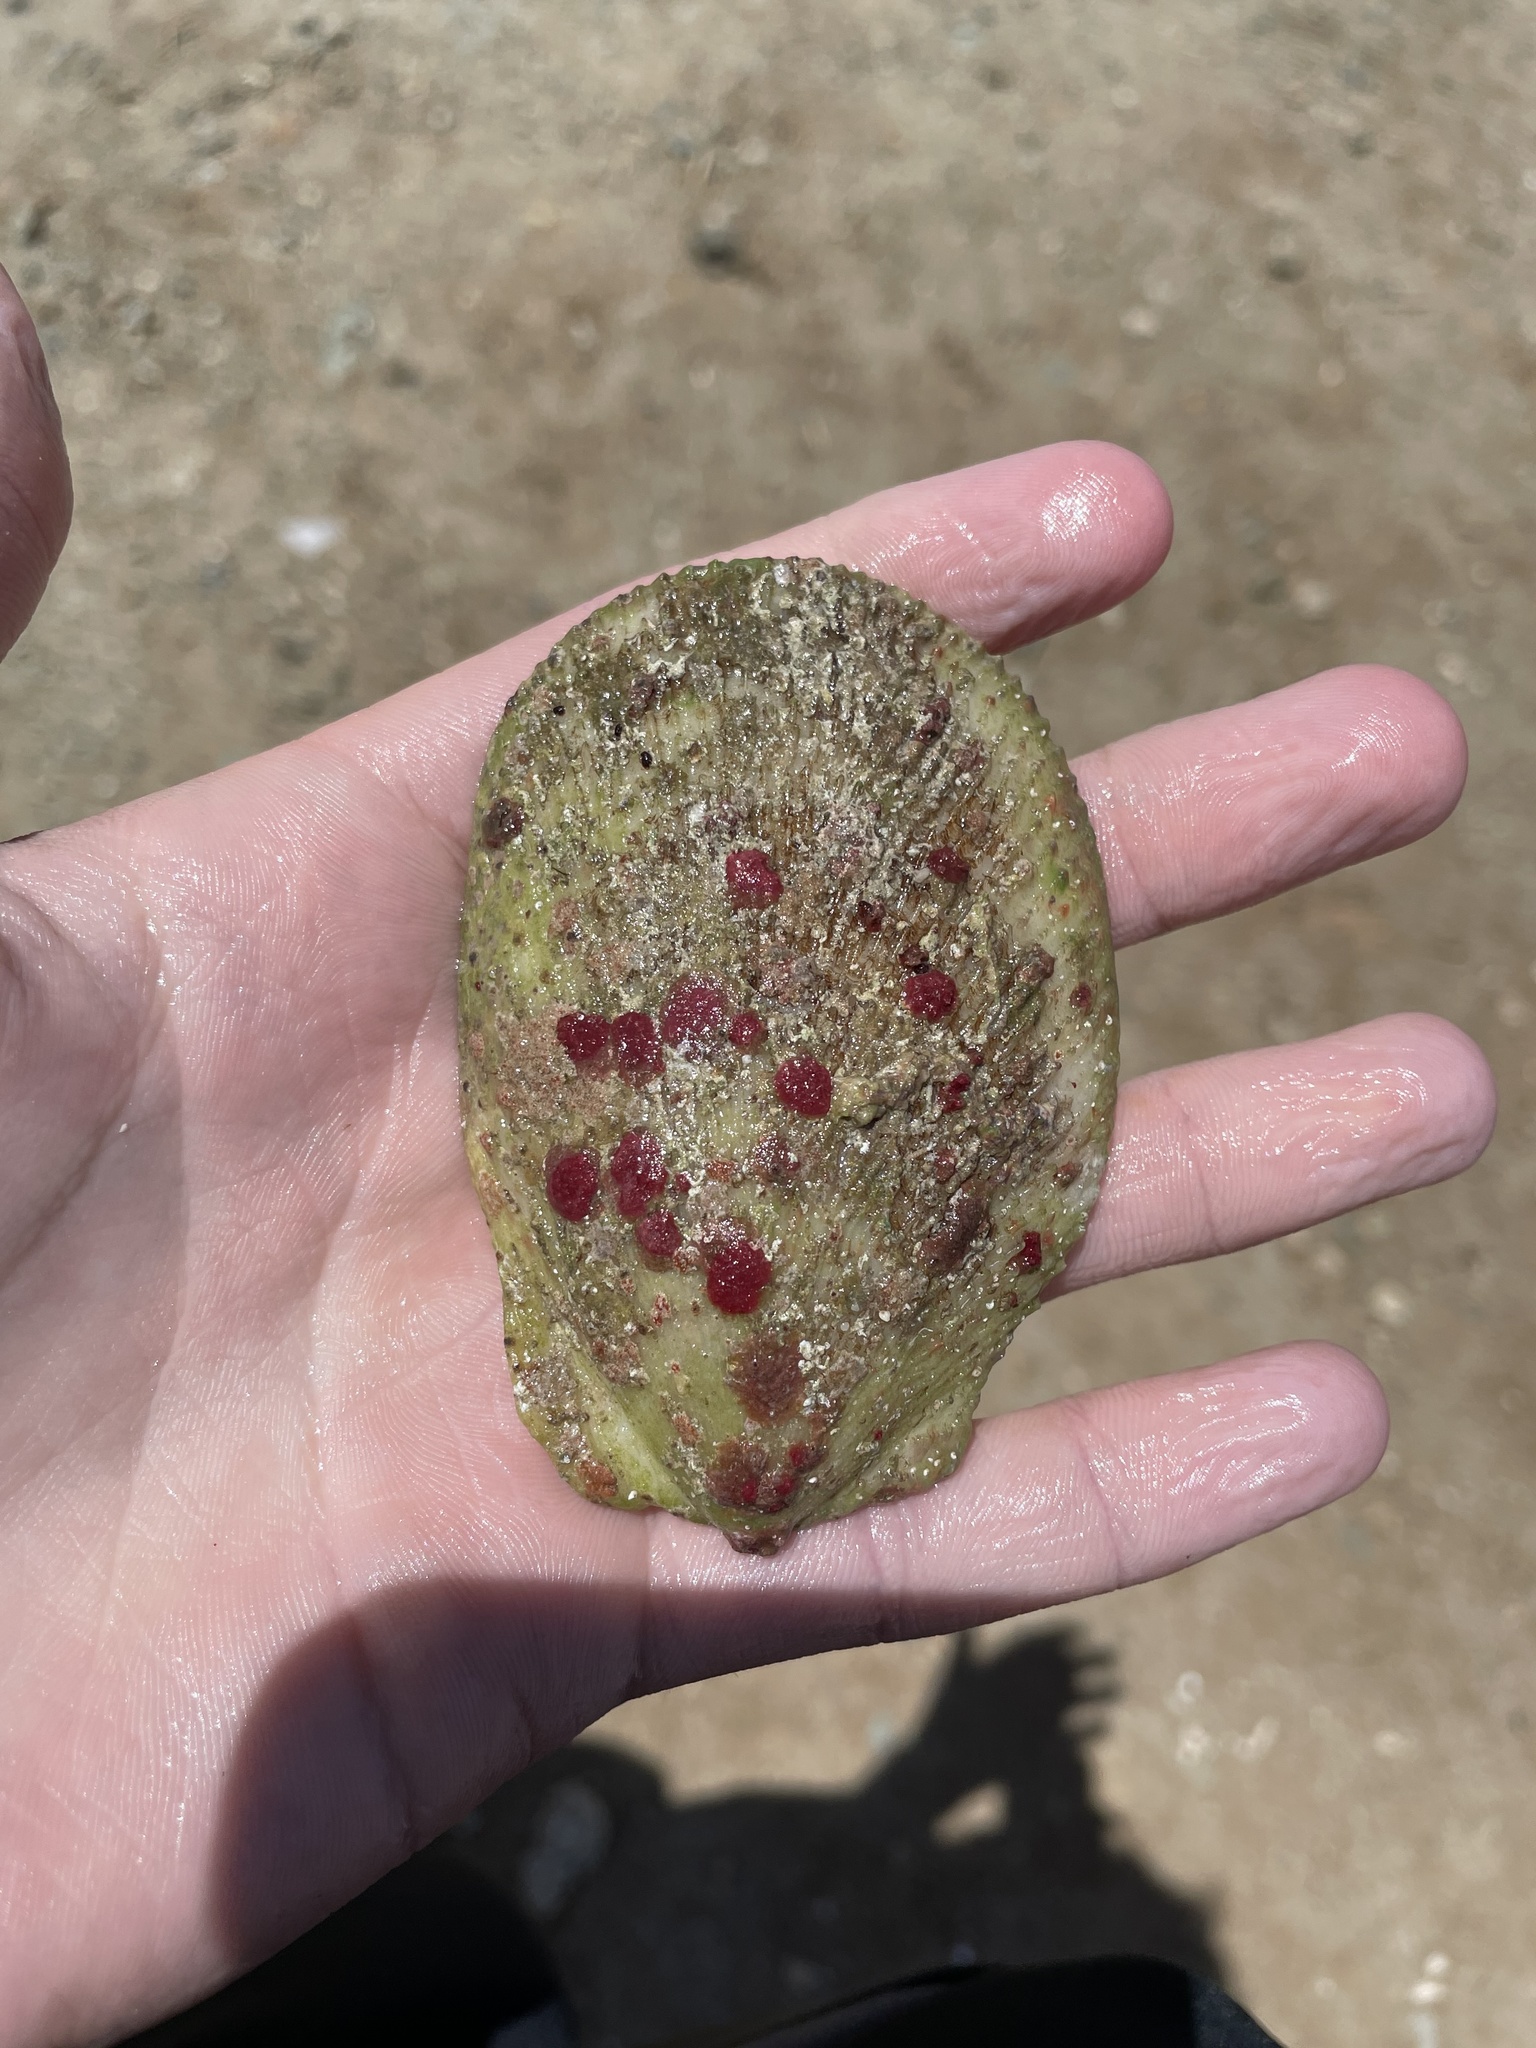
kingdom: Animalia
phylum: Mollusca
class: Bivalvia
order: Limida
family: Limidae
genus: Ctenoides
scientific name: Ctenoides scaber
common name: Rough fileclam
